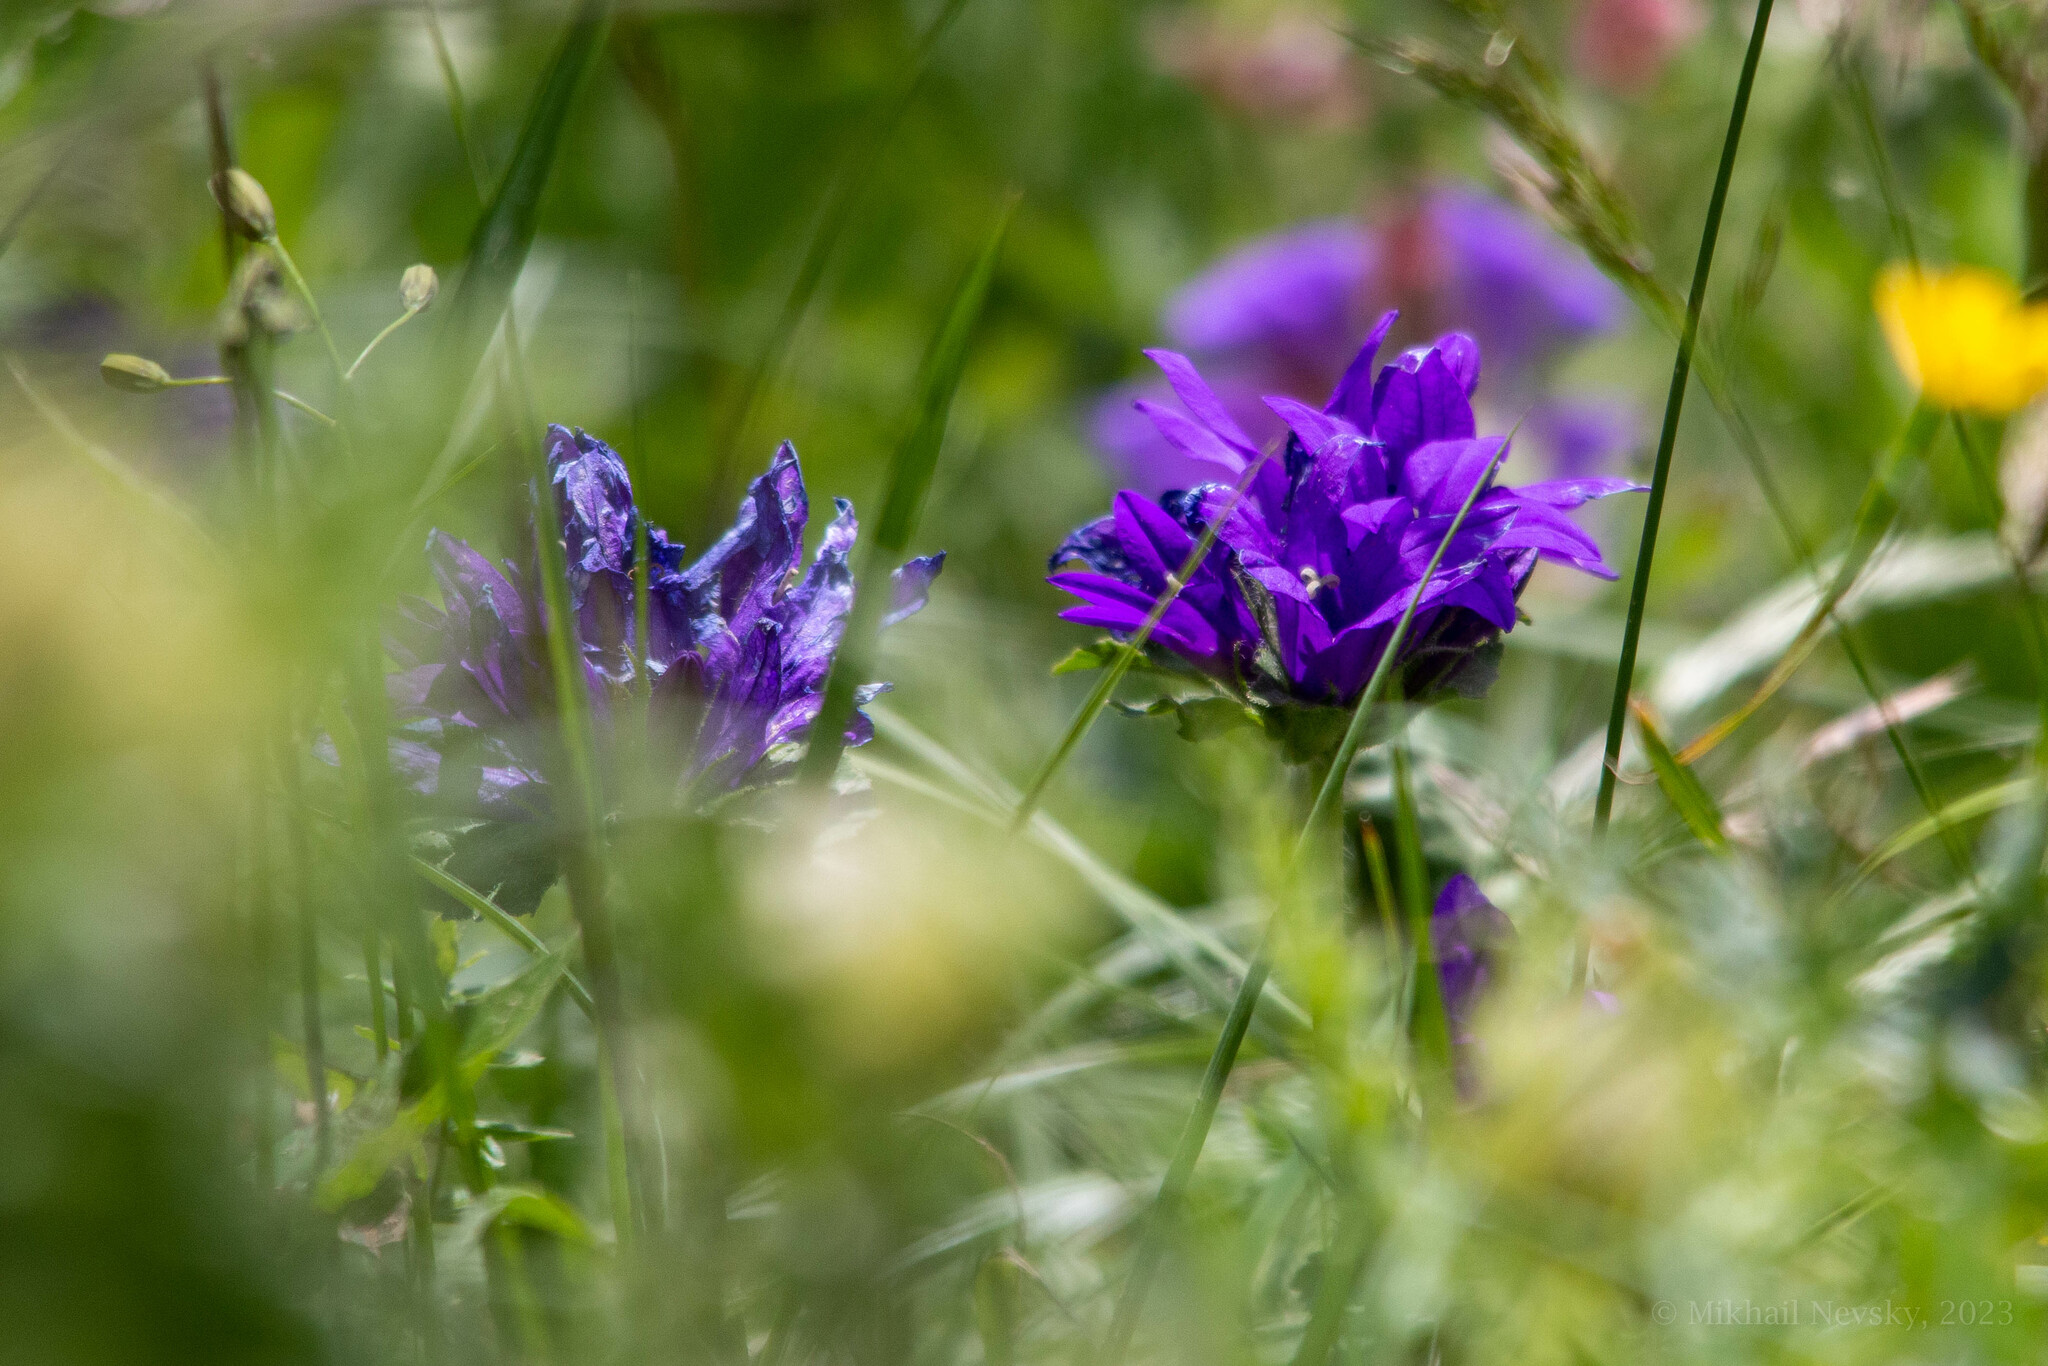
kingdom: Plantae
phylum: Tracheophyta
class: Magnoliopsida
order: Asterales
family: Campanulaceae
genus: Campanula
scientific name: Campanula glomerata
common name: Clustered bellflower
